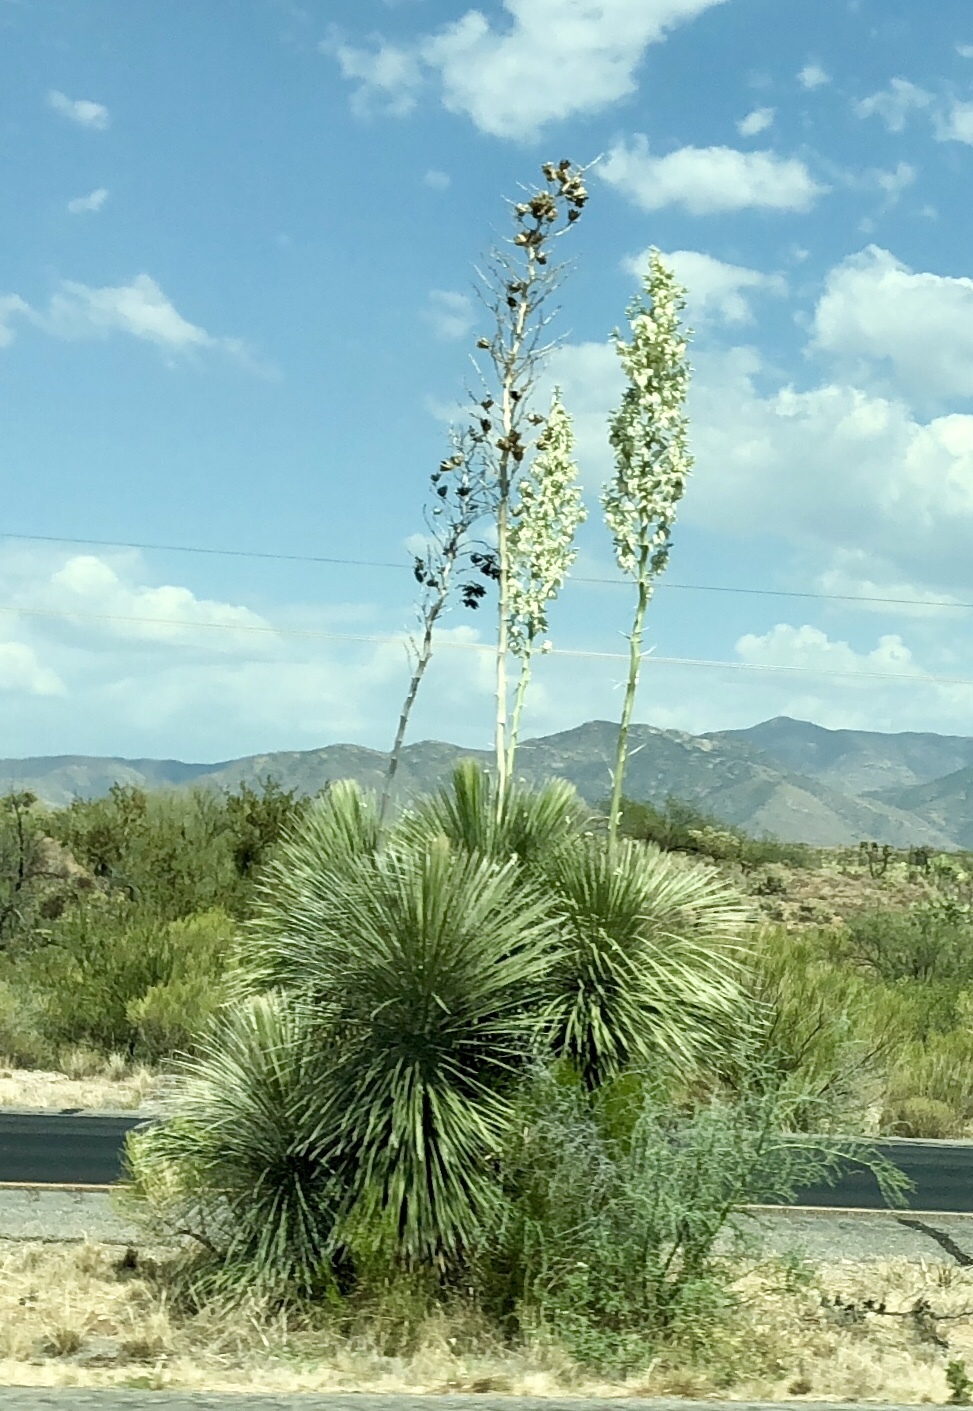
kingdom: Plantae
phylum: Tracheophyta
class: Liliopsida
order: Asparagales
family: Asparagaceae
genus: Yucca
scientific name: Yucca elata
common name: Palmella
